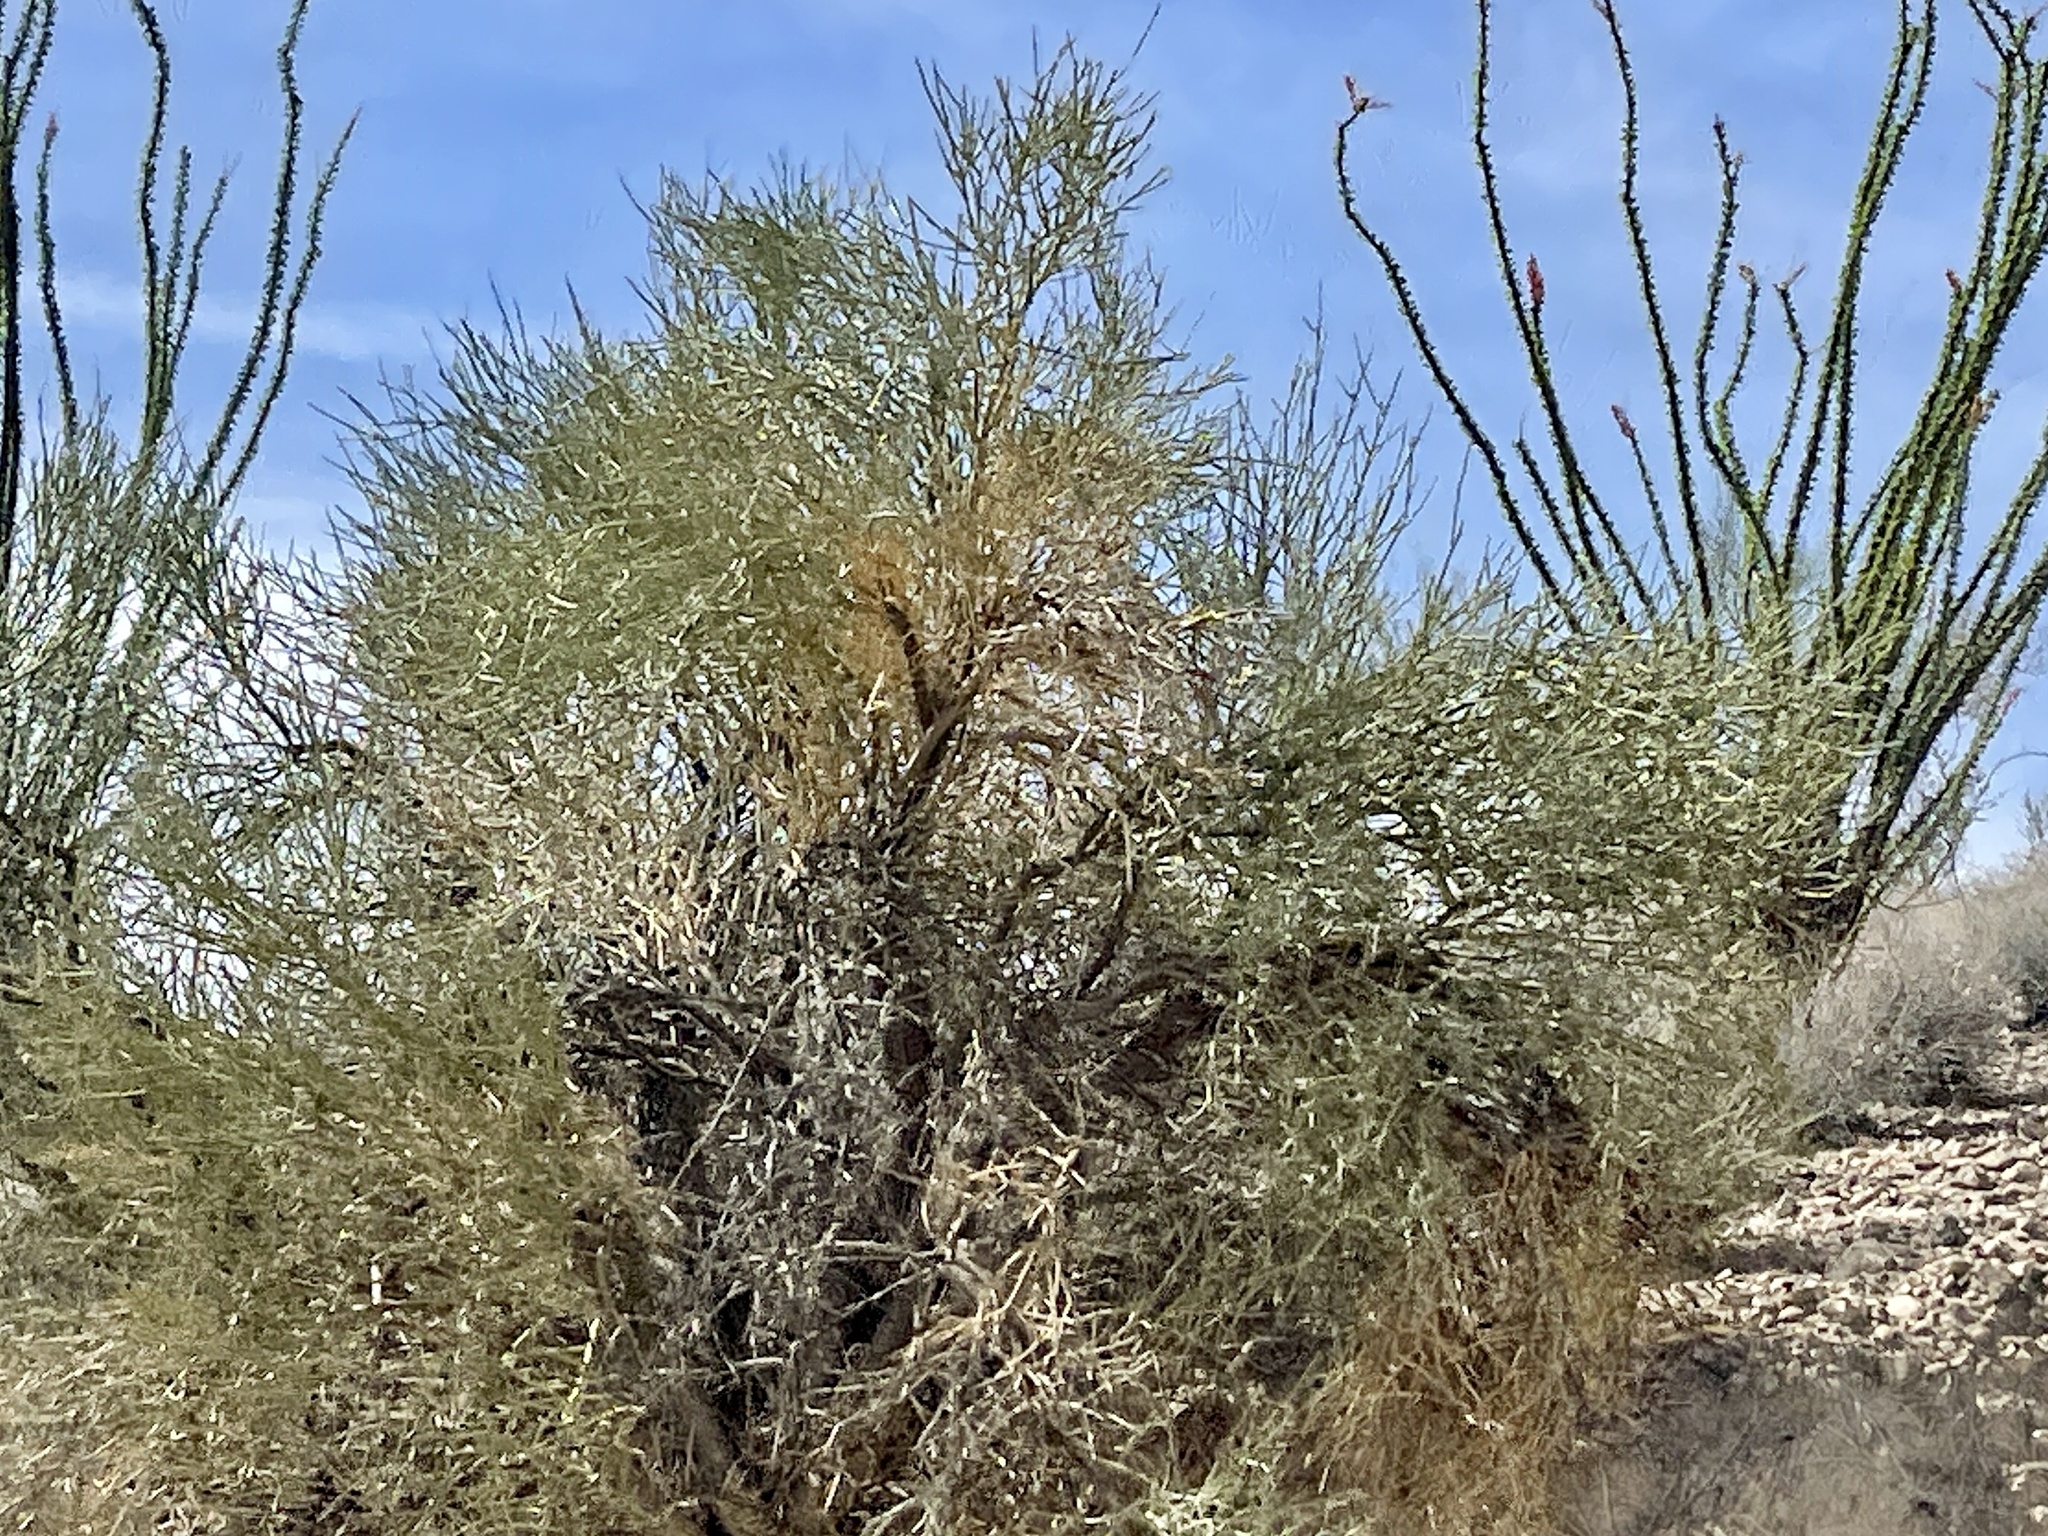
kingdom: Plantae
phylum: Tracheophyta
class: Magnoliopsida
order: Celastrales
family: Celastraceae
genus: Canotia
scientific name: Canotia holacantha
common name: Crucifixion thorns
